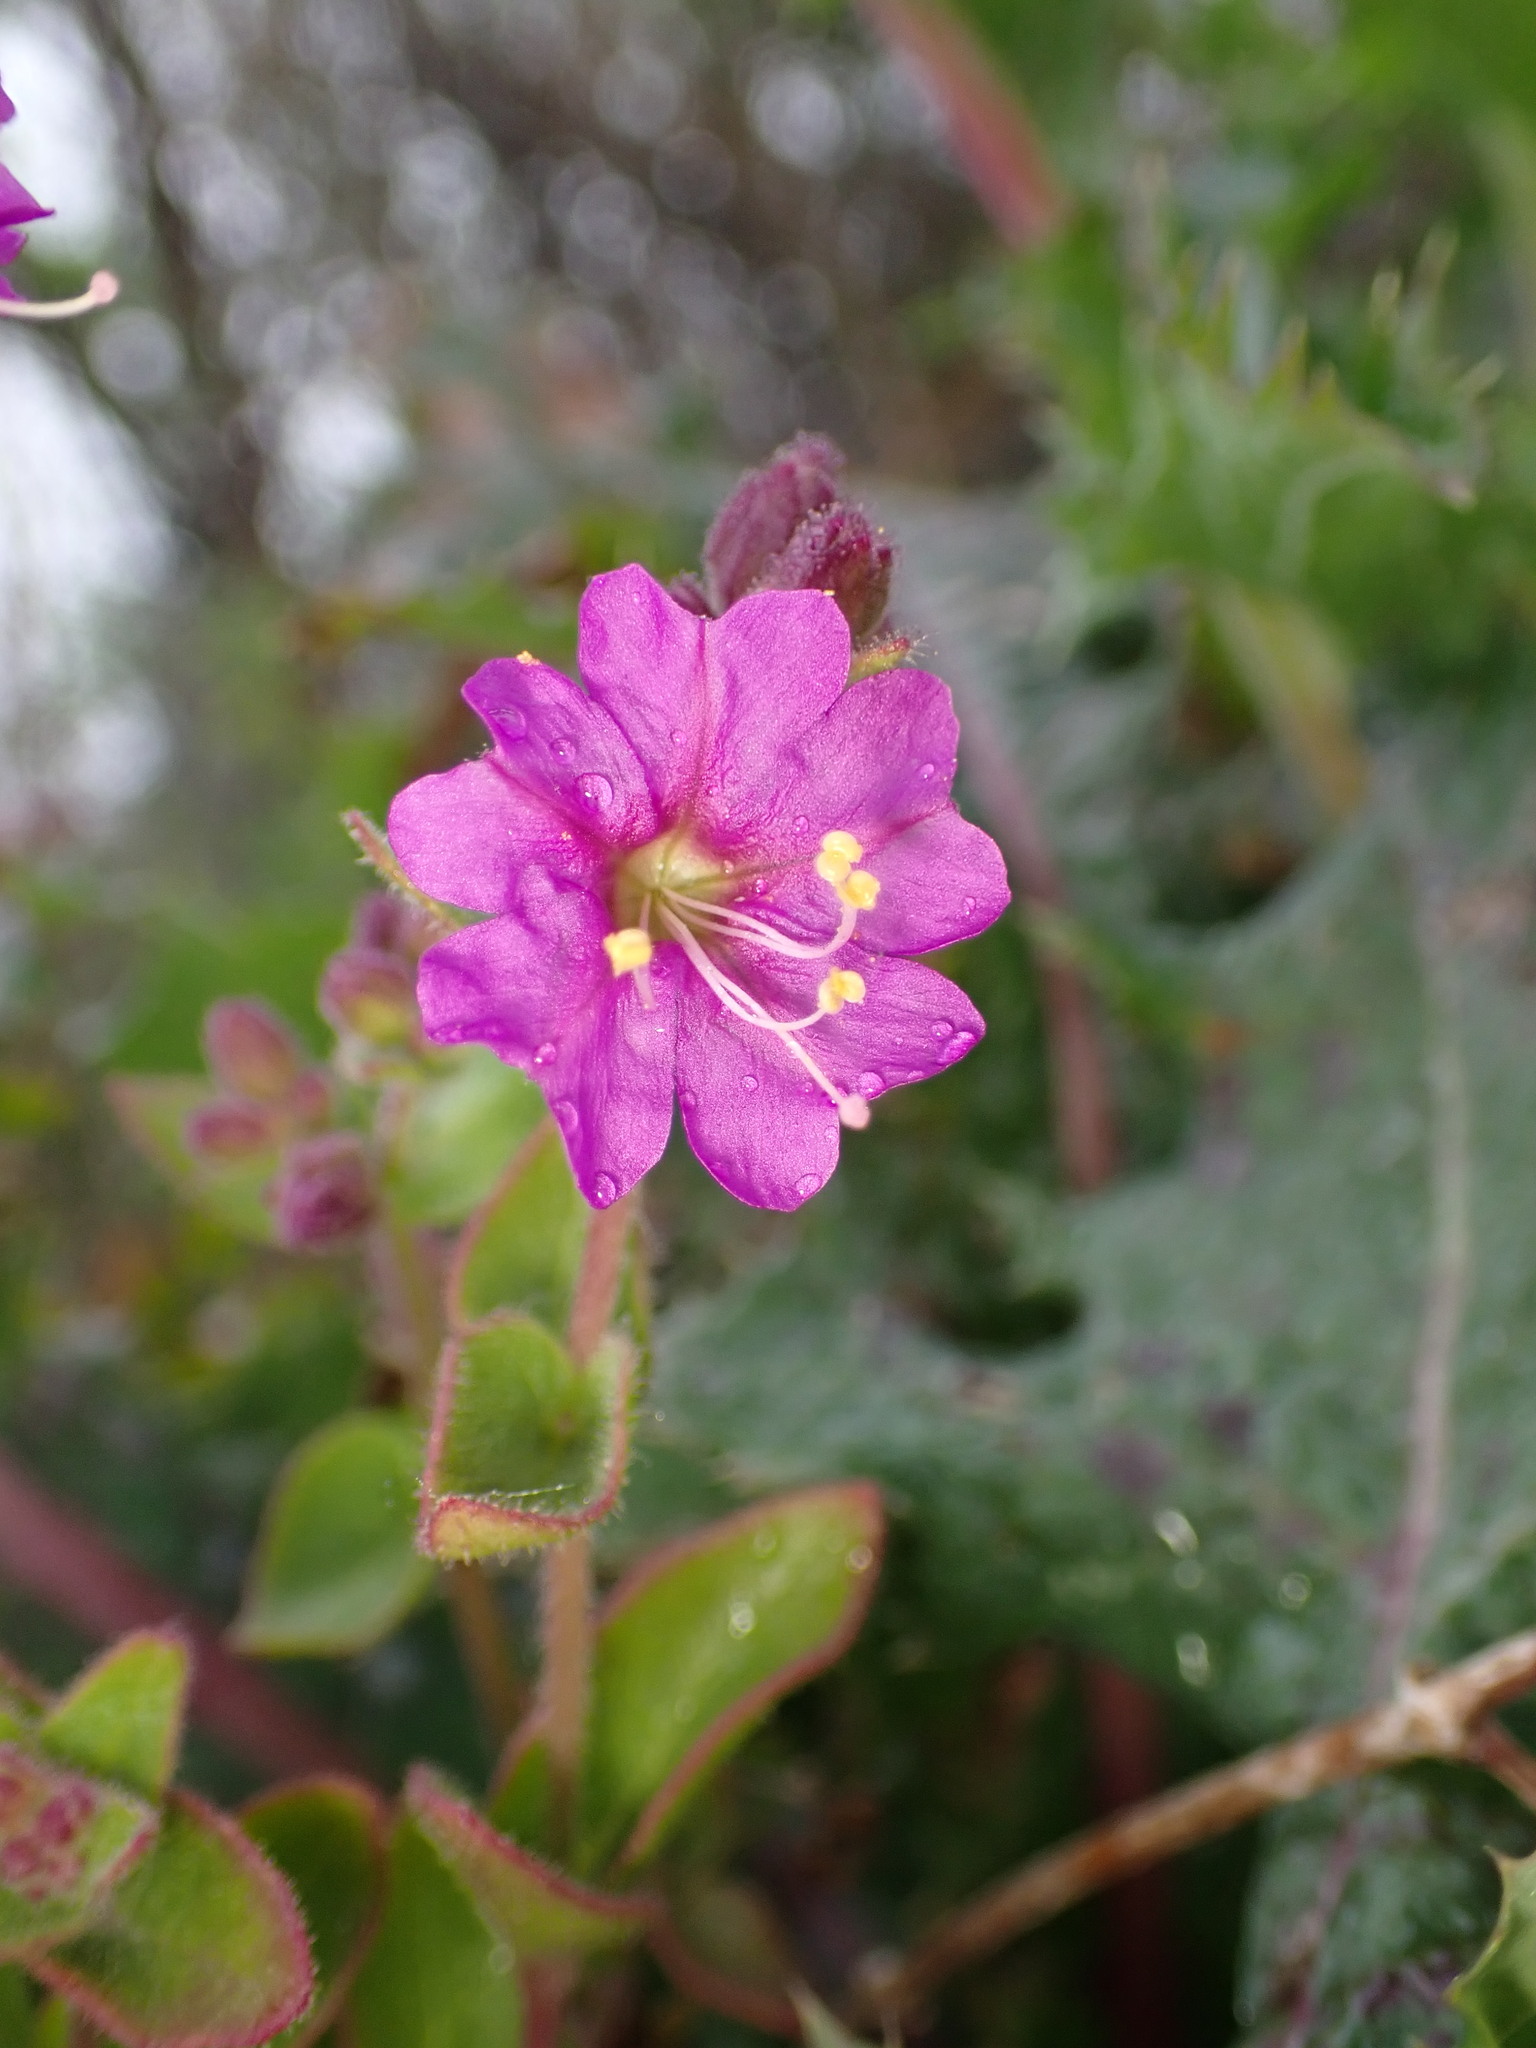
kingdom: Plantae
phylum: Tracheophyta
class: Magnoliopsida
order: Caryophyllales
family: Nyctaginaceae
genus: Mirabilis
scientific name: Mirabilis laevis
